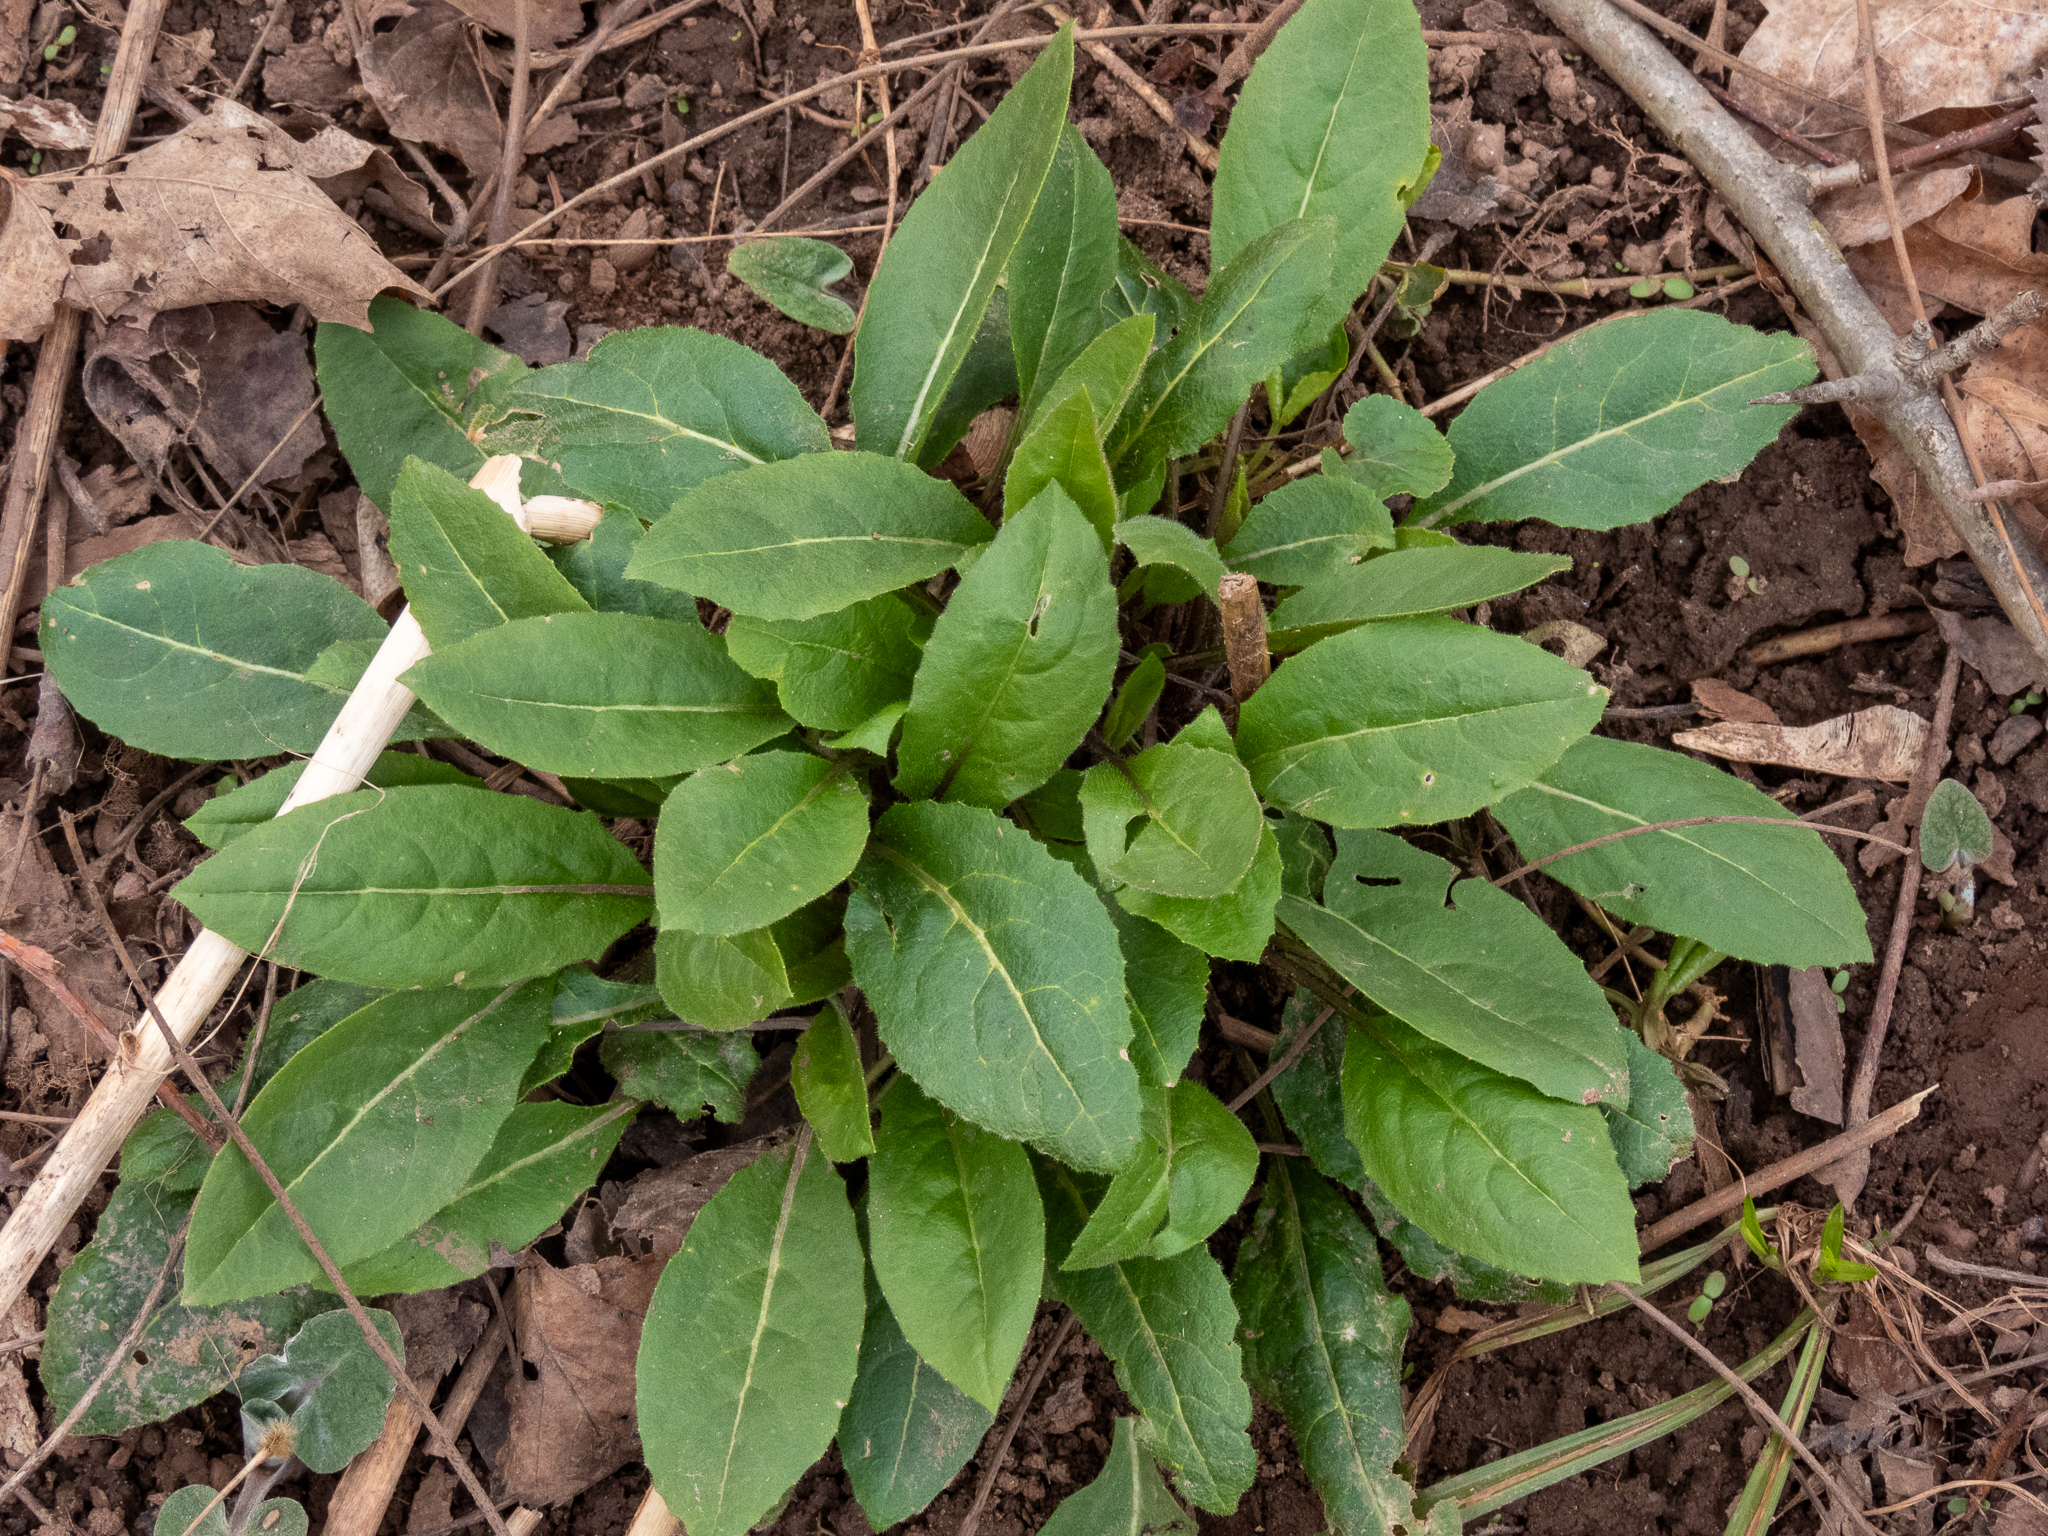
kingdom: Plantae
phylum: Tracheophyta
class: Magnoliopsida
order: Brassicales
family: Brassicaceae
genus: Hesperis
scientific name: Hesperis matronalis
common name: Dame's-violet
